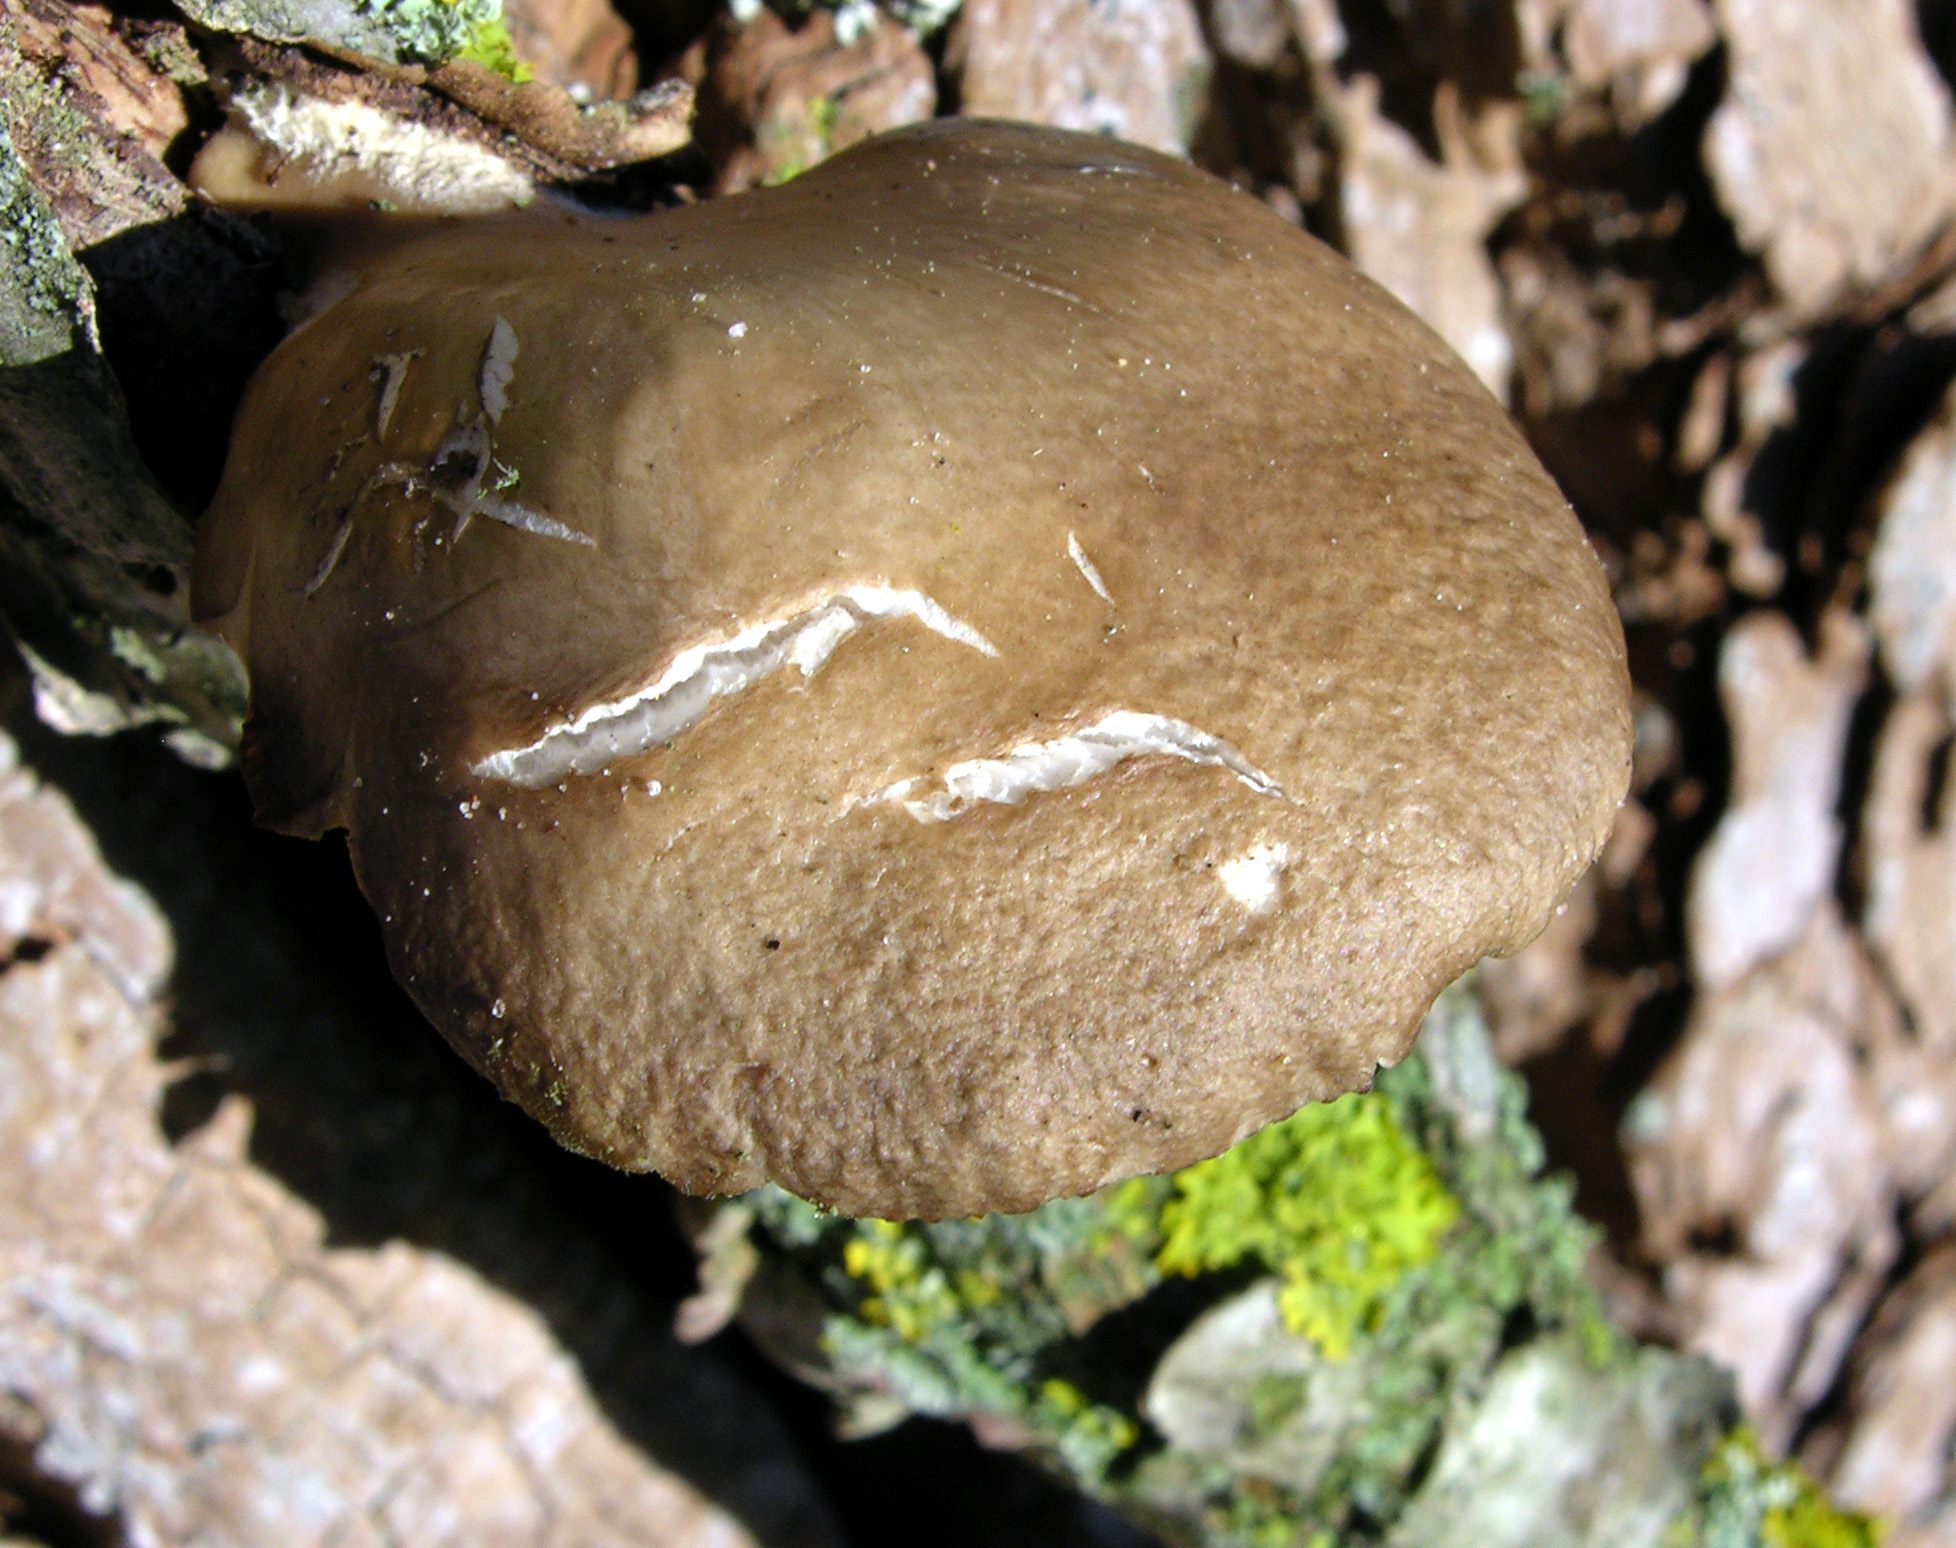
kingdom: Fungi
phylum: Basidiomycota
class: Agaricomycetes
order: Agaricales
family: Pleurotaceae
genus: Pleurotus
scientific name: Pleurotus ostreatus
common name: Oyster mushroom
